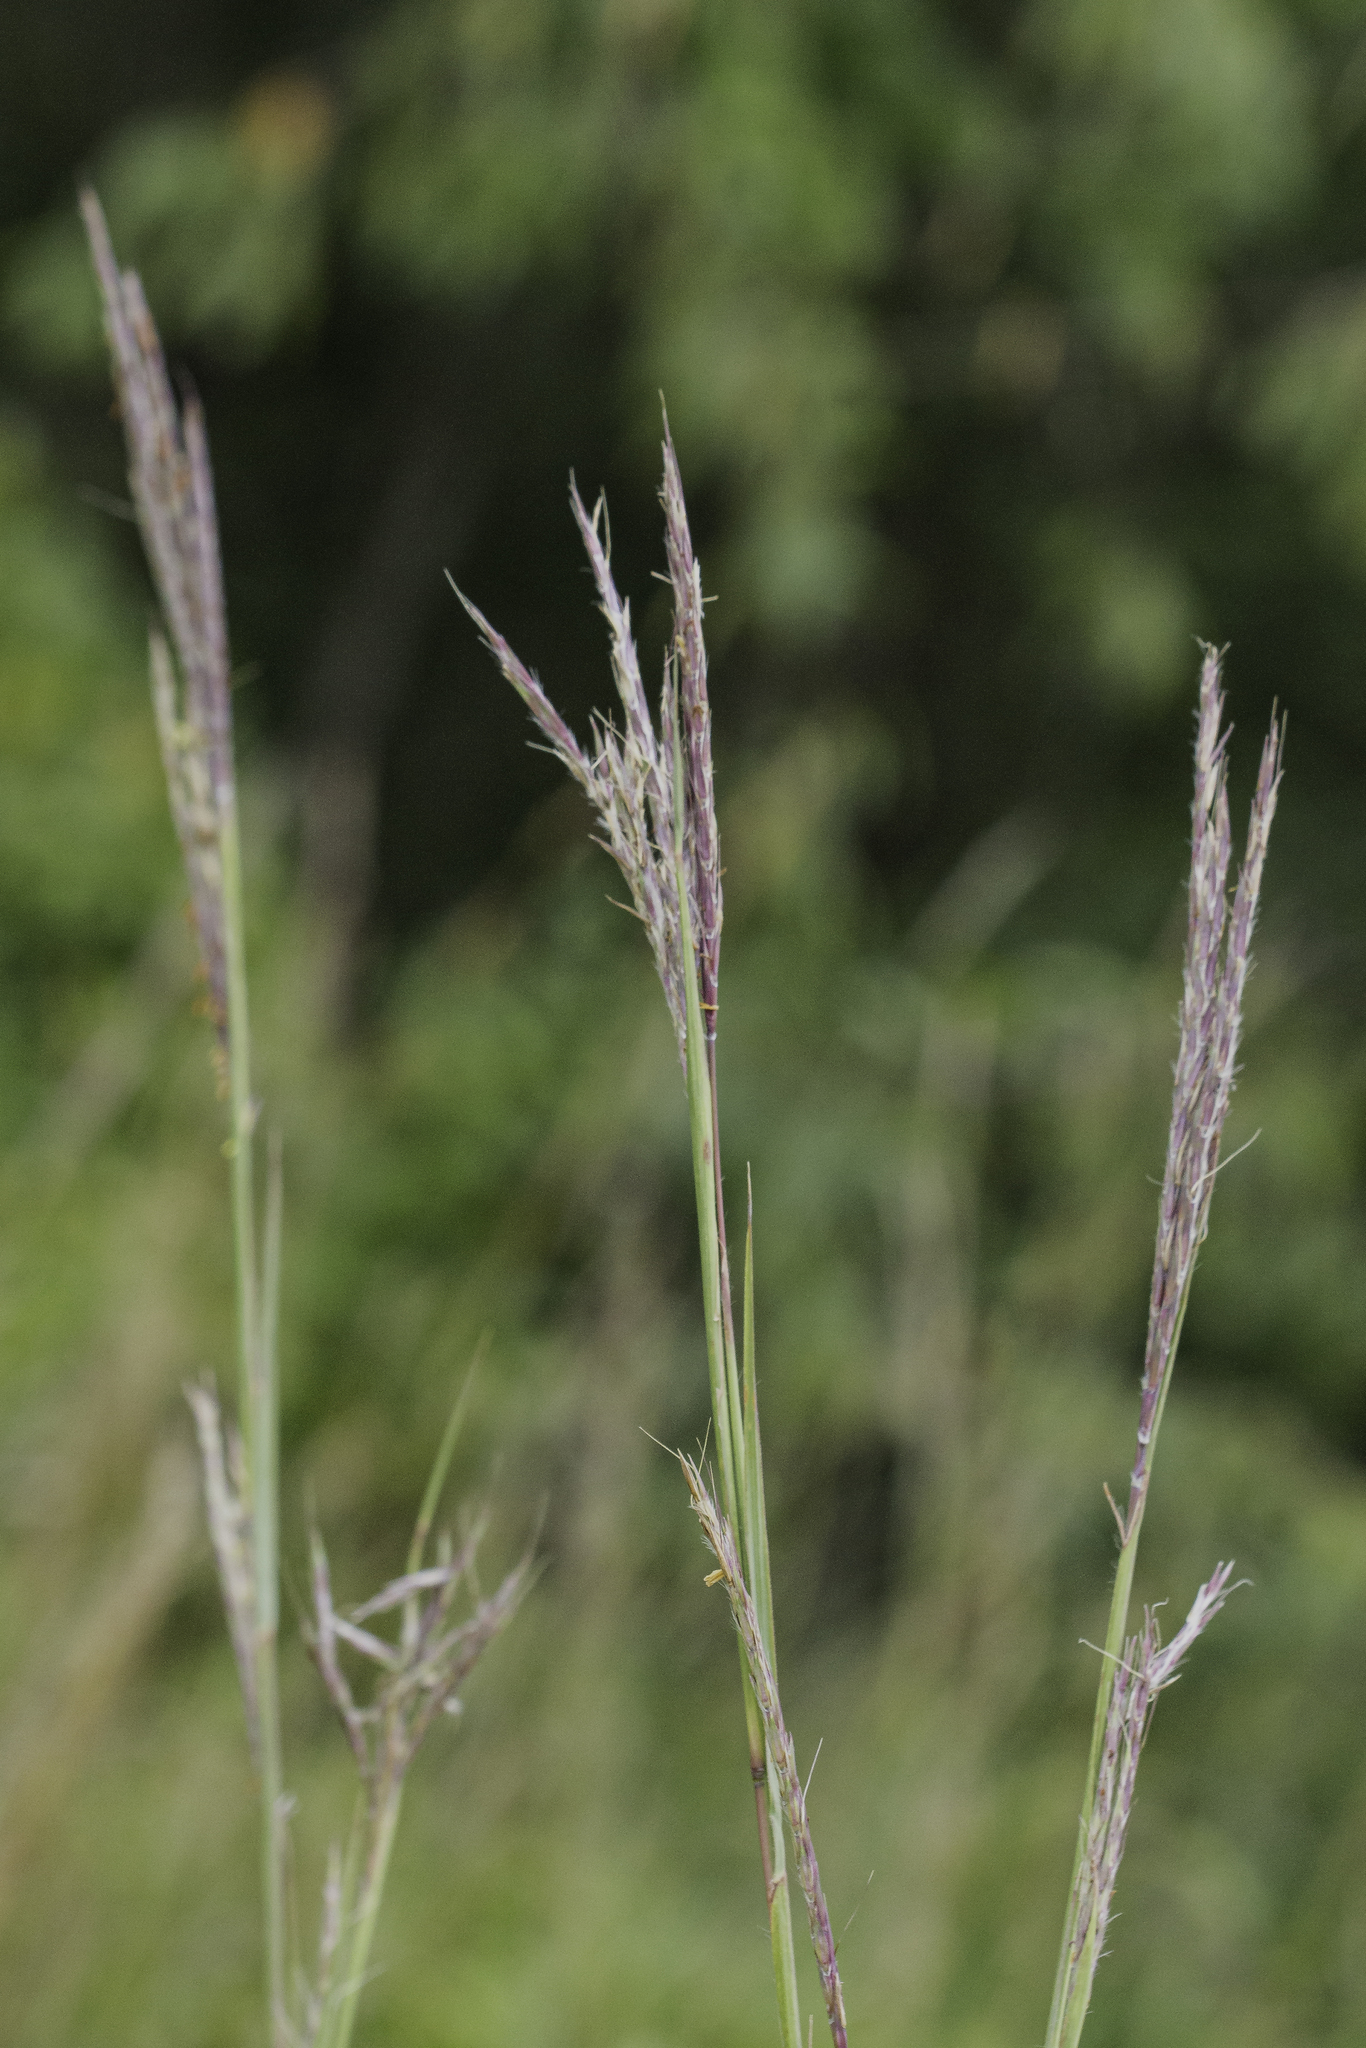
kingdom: Plantae
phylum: Tracheophyta
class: Liliopsida
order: Poales
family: Poaceae
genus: Andropogon
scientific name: Andropogon gerardi
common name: Big bluestem
